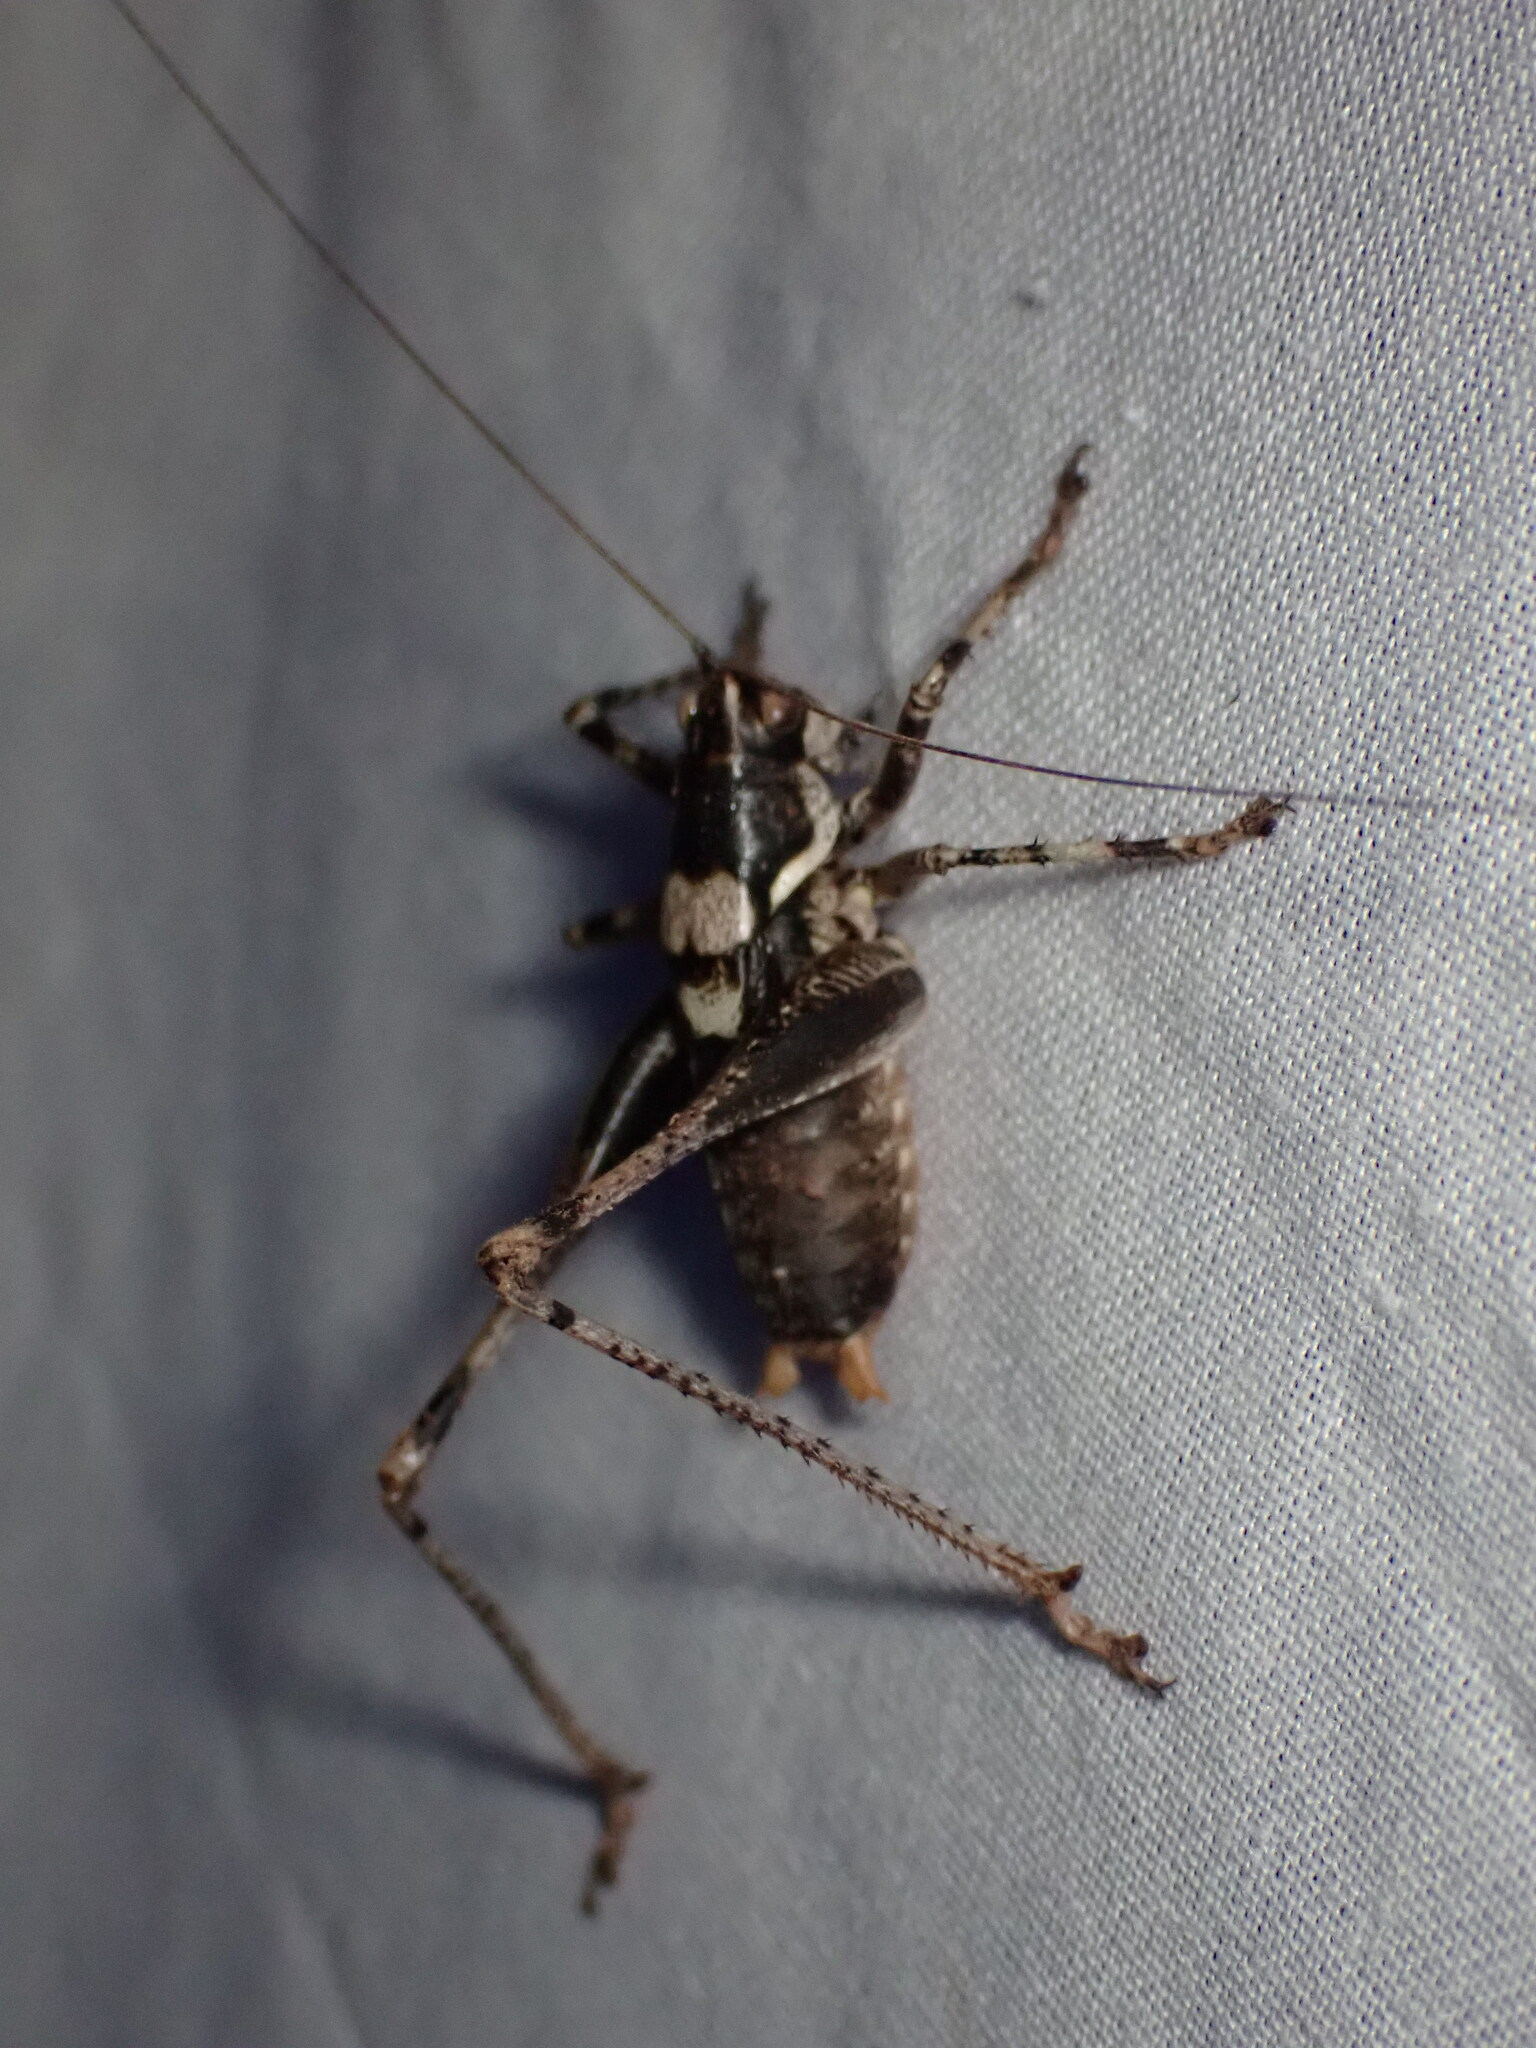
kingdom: Animalia
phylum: Arthropoda
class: Insecta
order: Orthoptera
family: Tettigoniidae
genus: Antaxius
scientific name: Antaxius pedestris
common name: Common mountain bush-cricket
